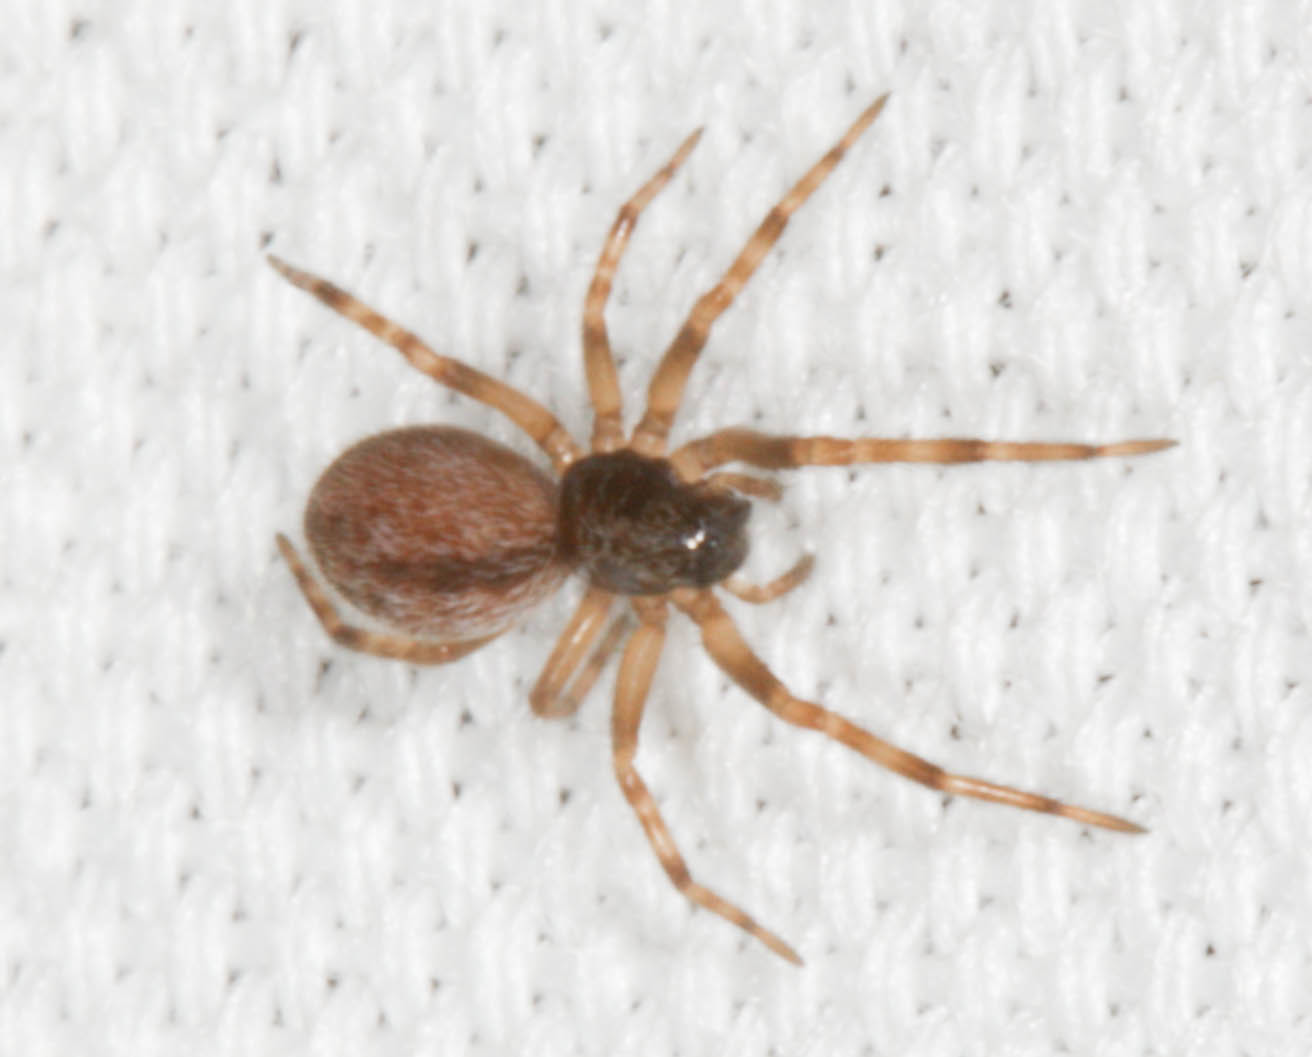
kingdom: Animalia
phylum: Arthropoda
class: Arachnida
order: Araneae
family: Desidae
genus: Badumna
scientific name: Badumna longinqua
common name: Gray house spider
